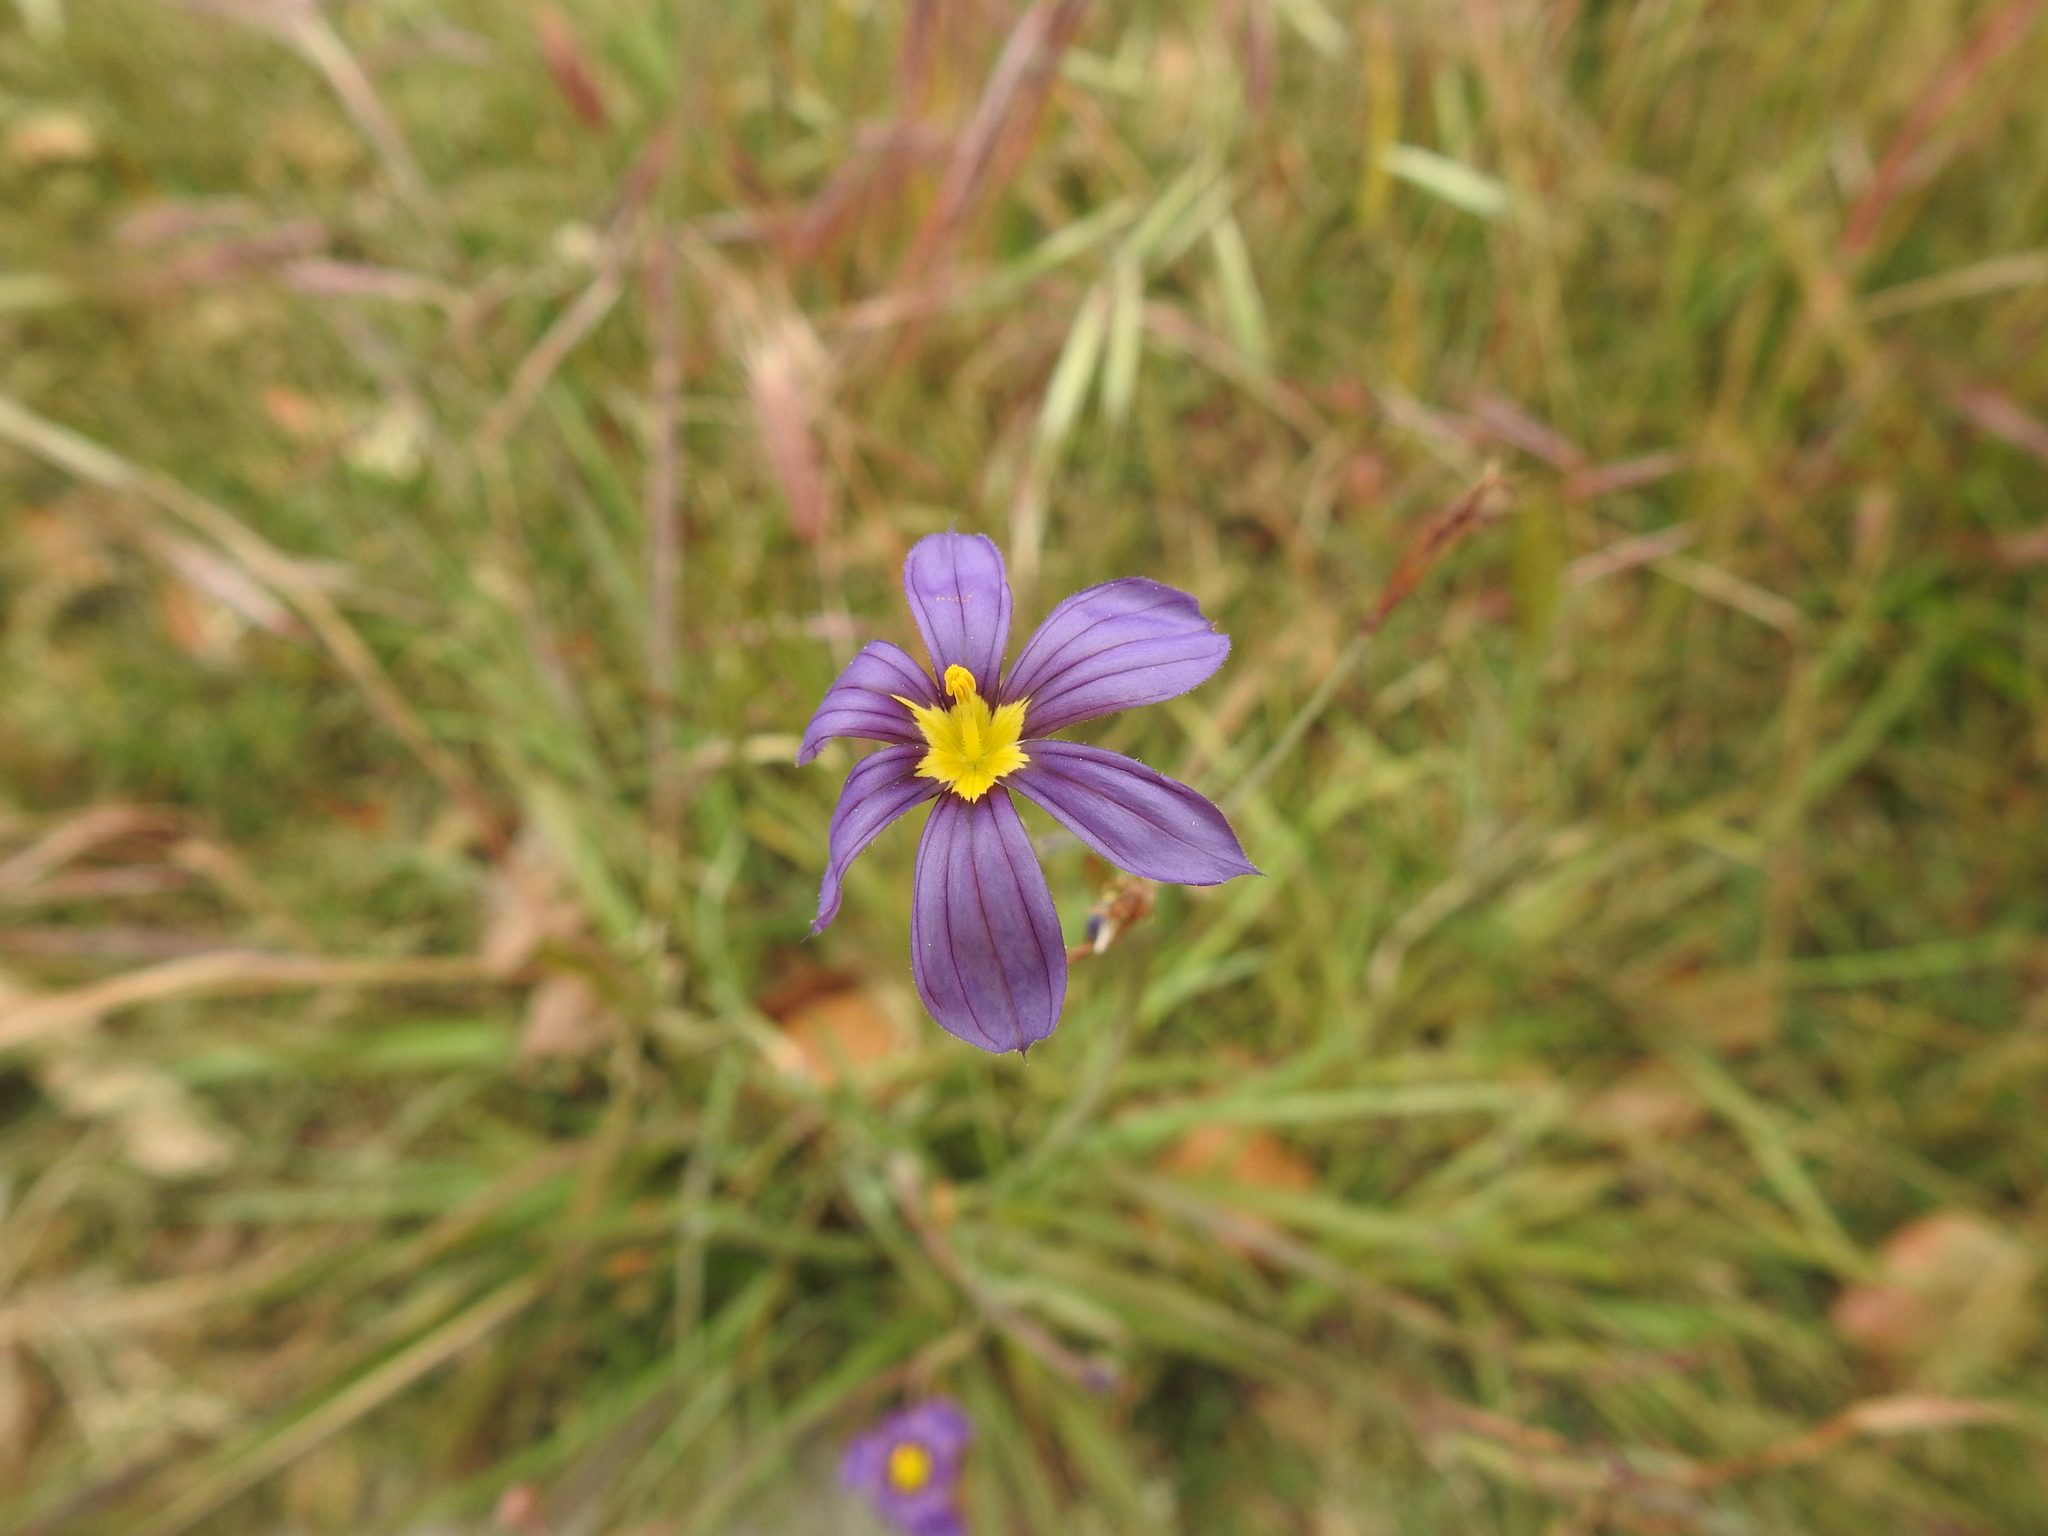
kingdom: Plantae
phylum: Tracheophyta
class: Liliopsida
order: Asparagales
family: Iridaceae
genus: Sisyrinchium
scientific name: Sisyrinchium bellum
